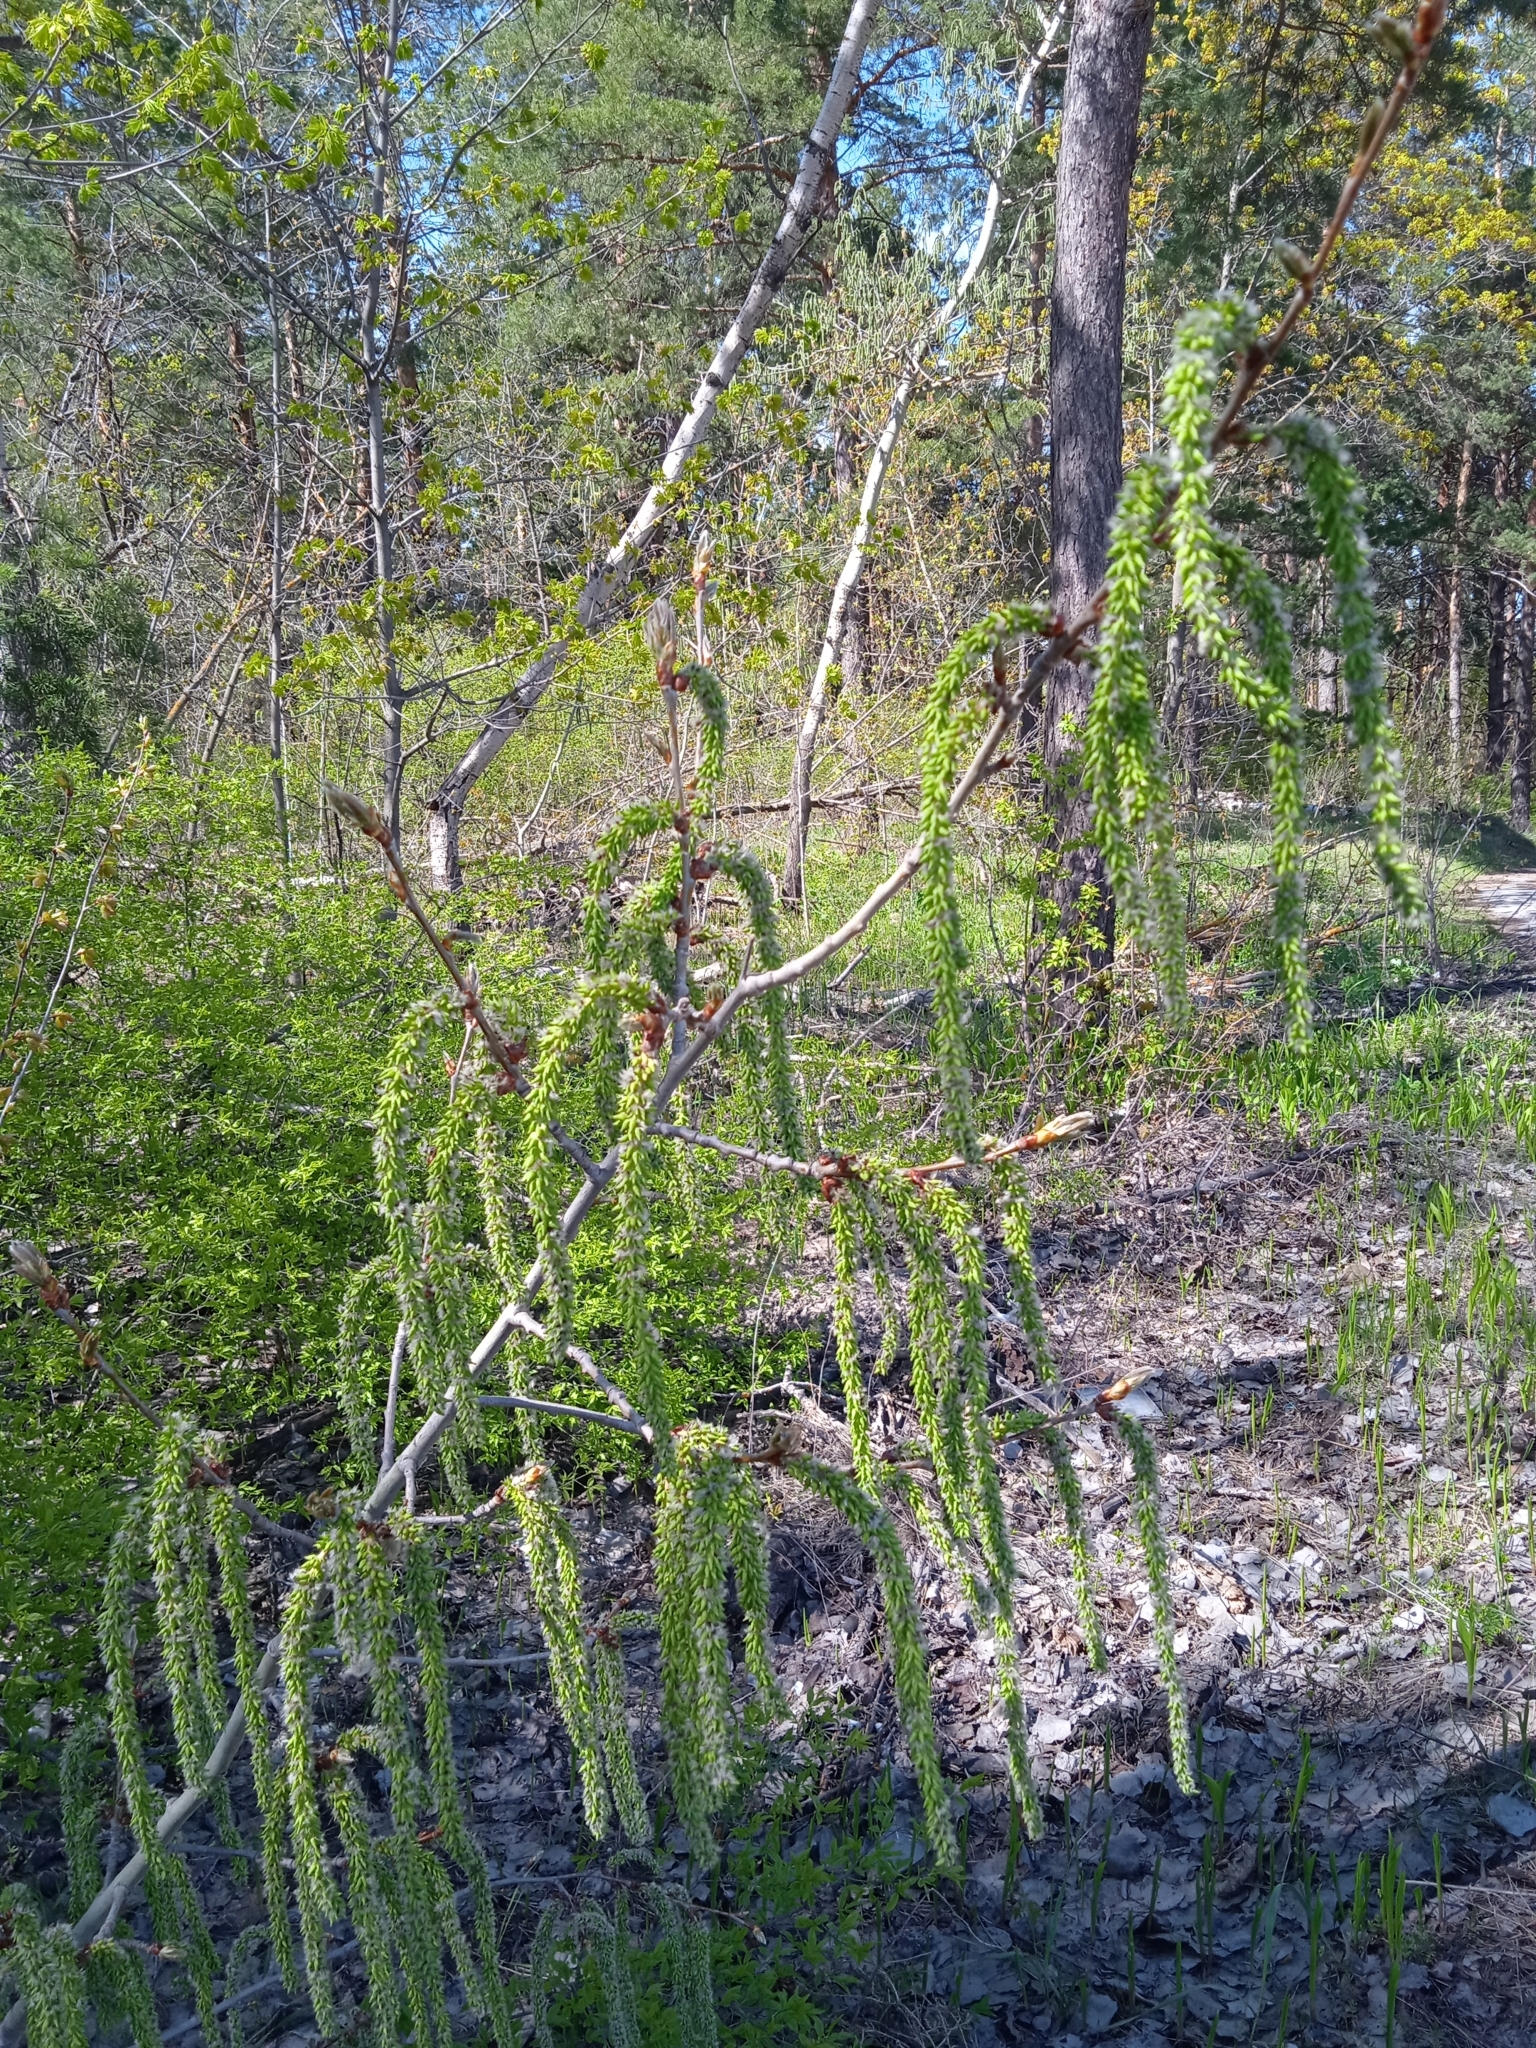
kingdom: Plantae
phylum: Tracheophyta
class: Magnoliopsida
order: Malpighiales
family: Salicaceae
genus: Populus
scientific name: Populus tremula
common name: European aspen
